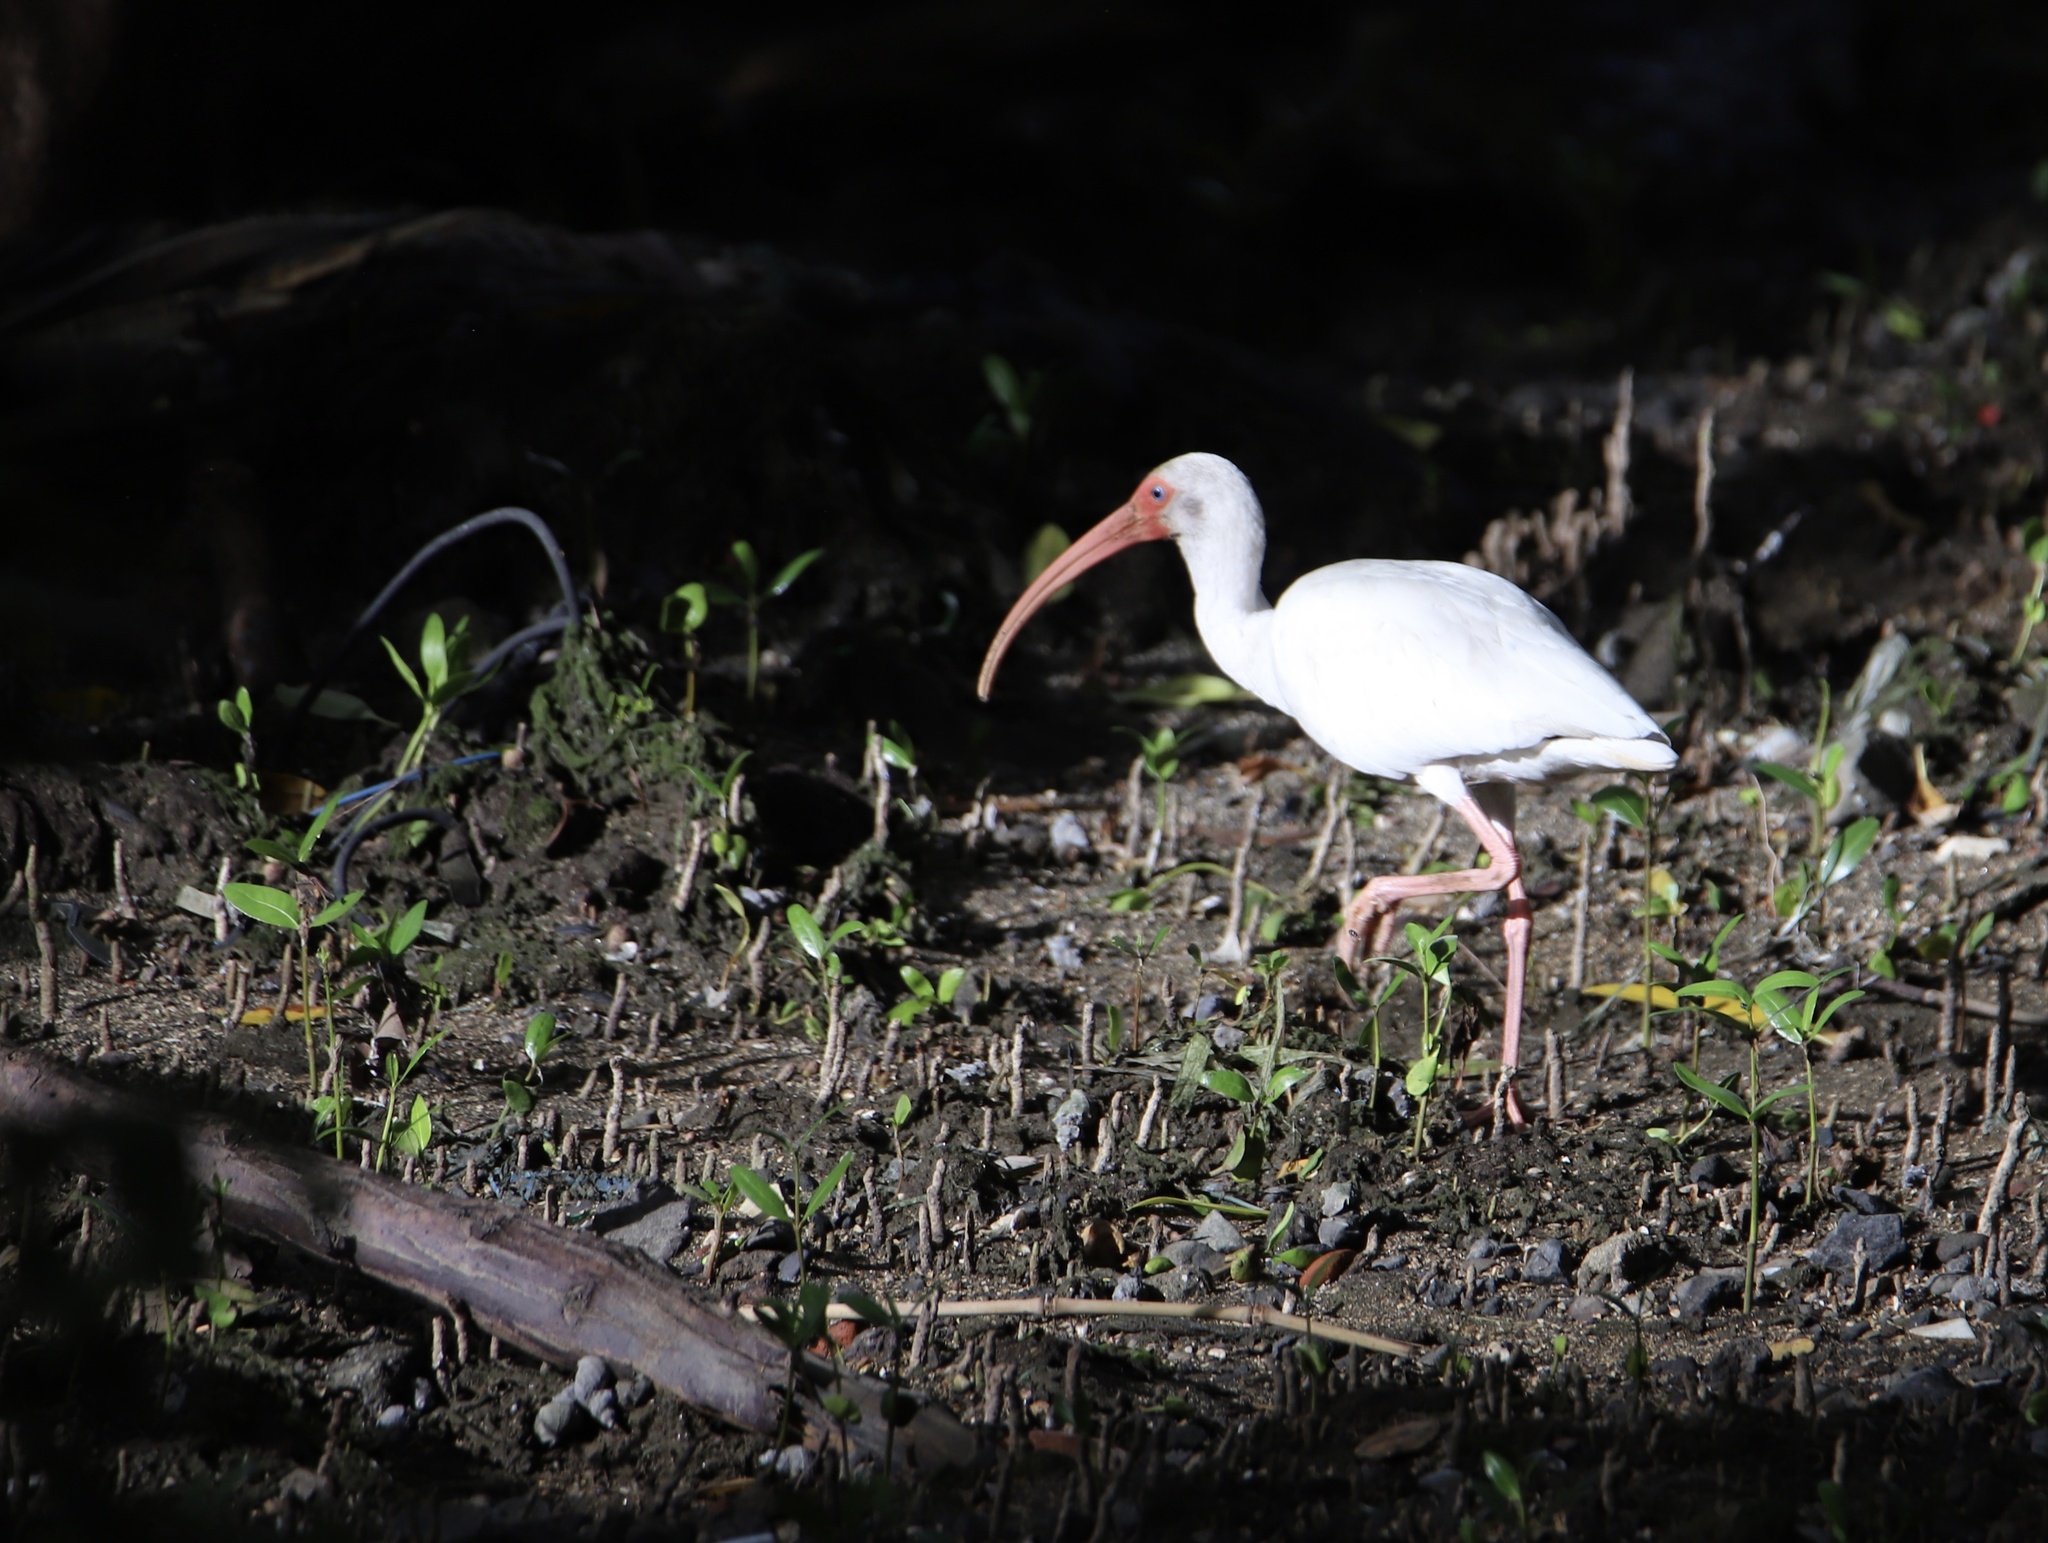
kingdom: Animalia
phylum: Chordata
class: Aves
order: Pelecaniformes
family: Threskiornithidae
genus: Eudocimus
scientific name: Eudocimus albus
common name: White ibis
